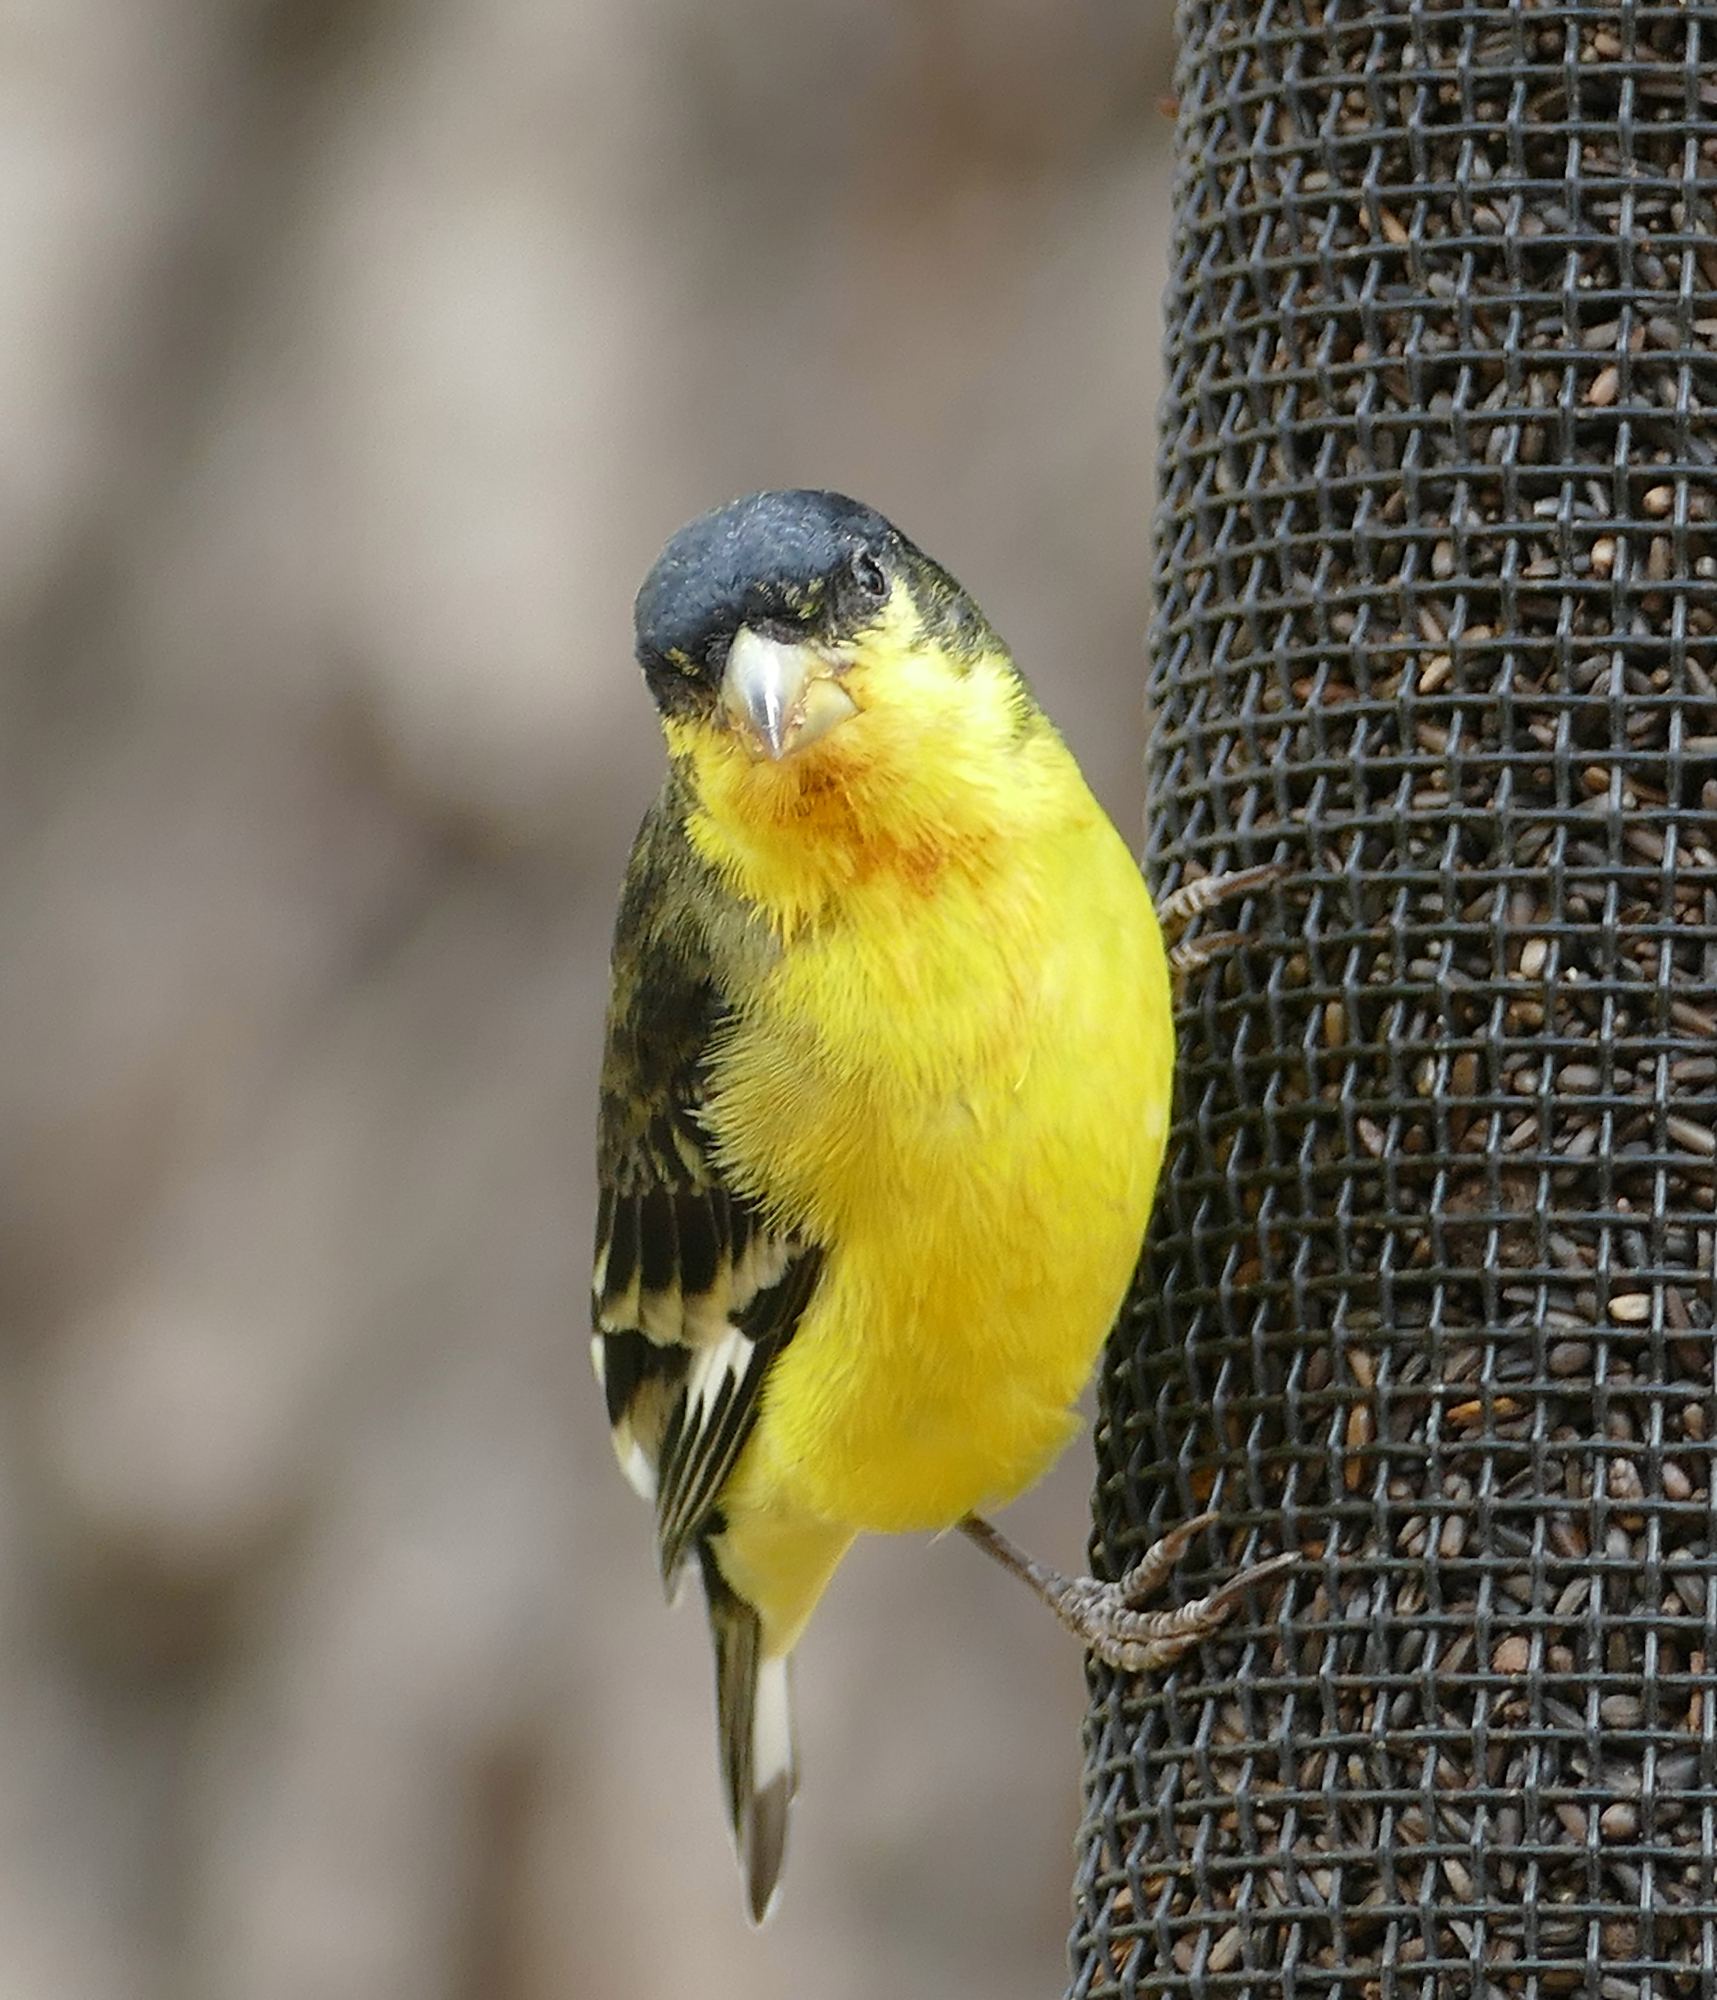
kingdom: Animalia
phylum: Chordata
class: Aves
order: Passeriformes
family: Fringillidae
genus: Spinus
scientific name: Spinus psaltria
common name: Lesser goldfinch
